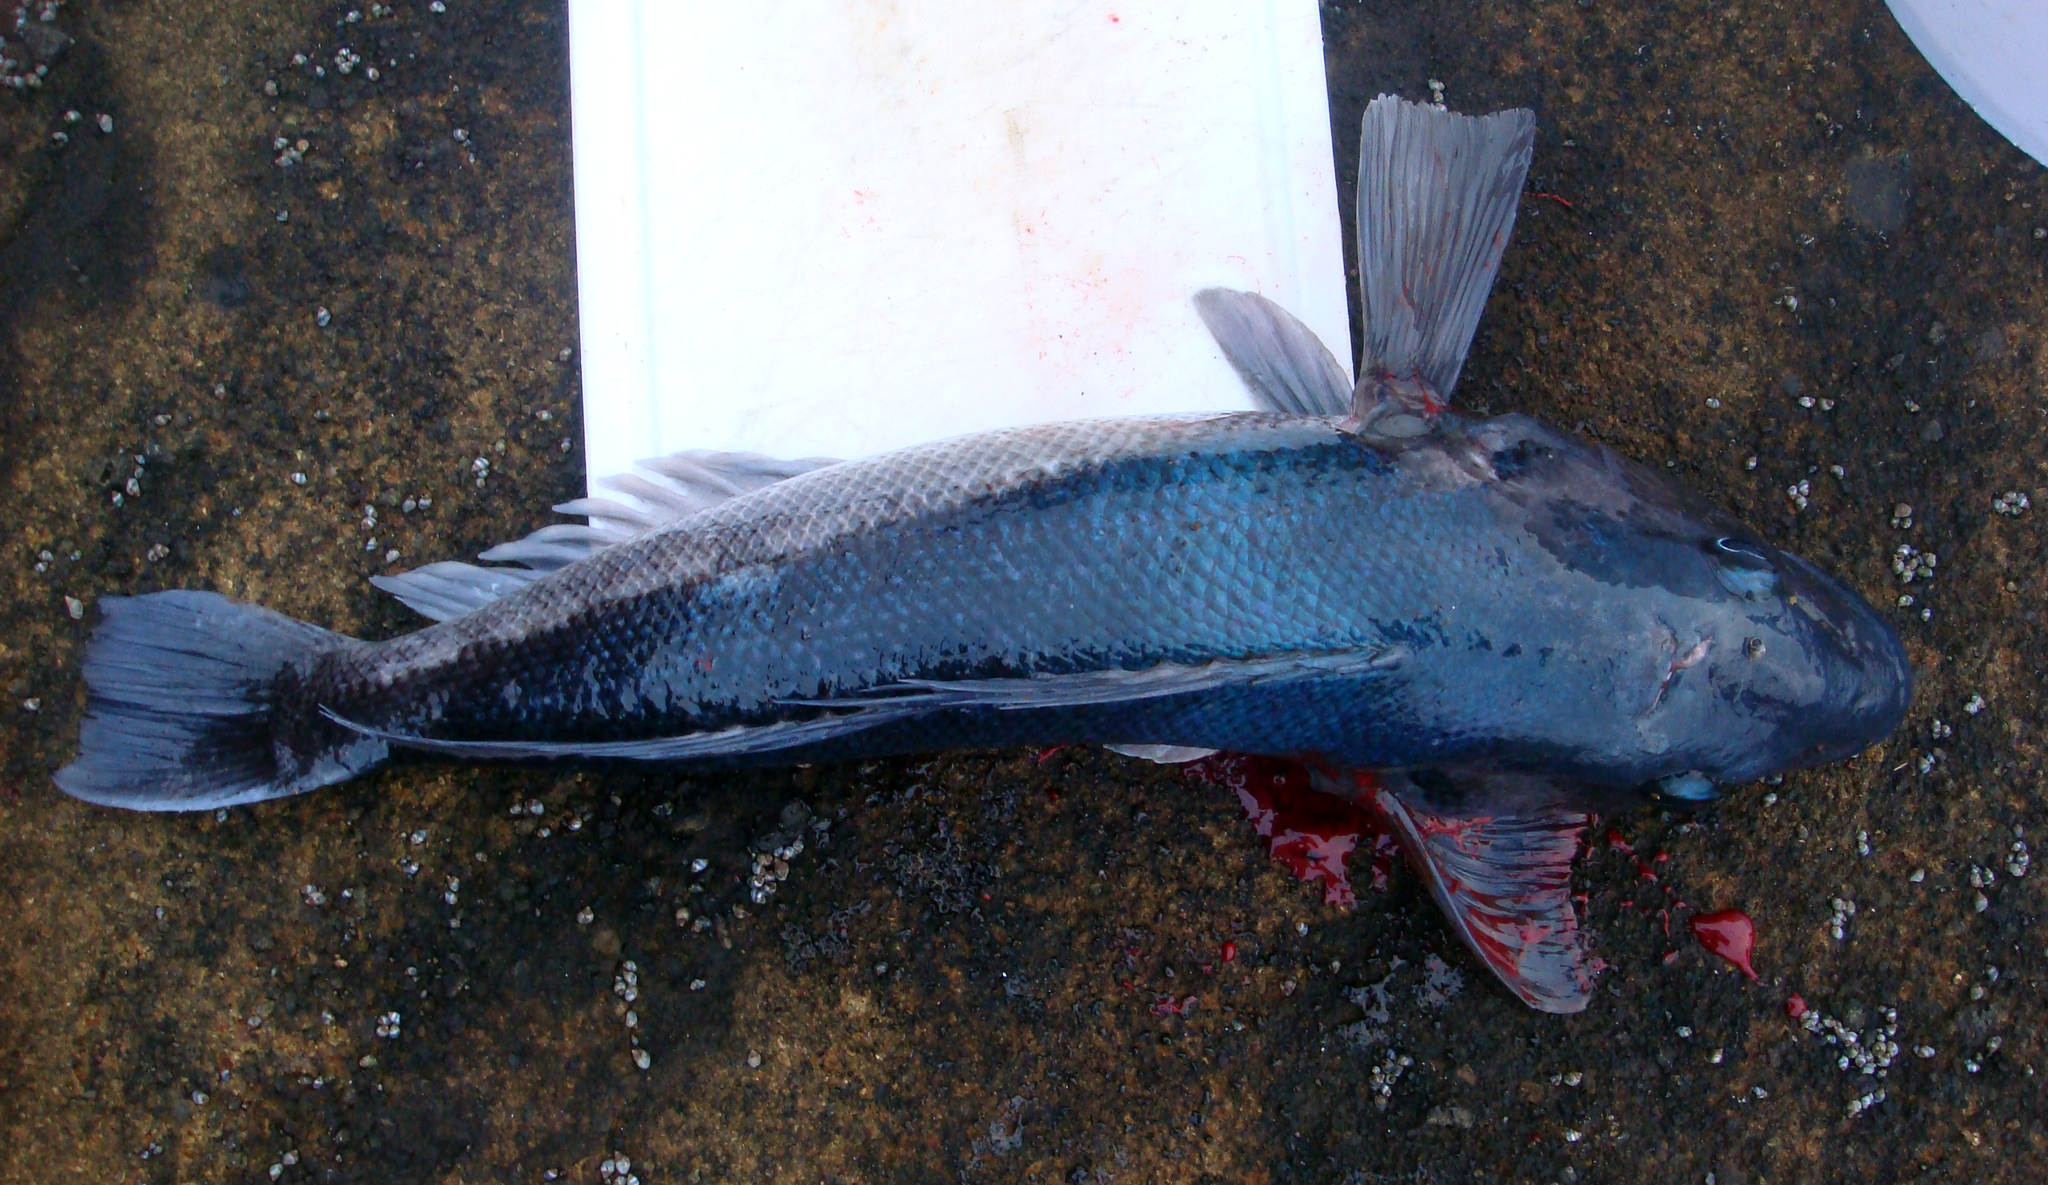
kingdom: Animalia
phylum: Chordata
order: Perciformes
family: Pinguipedidae
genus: Parapercis
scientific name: Parapercis colias
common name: Blue cod
